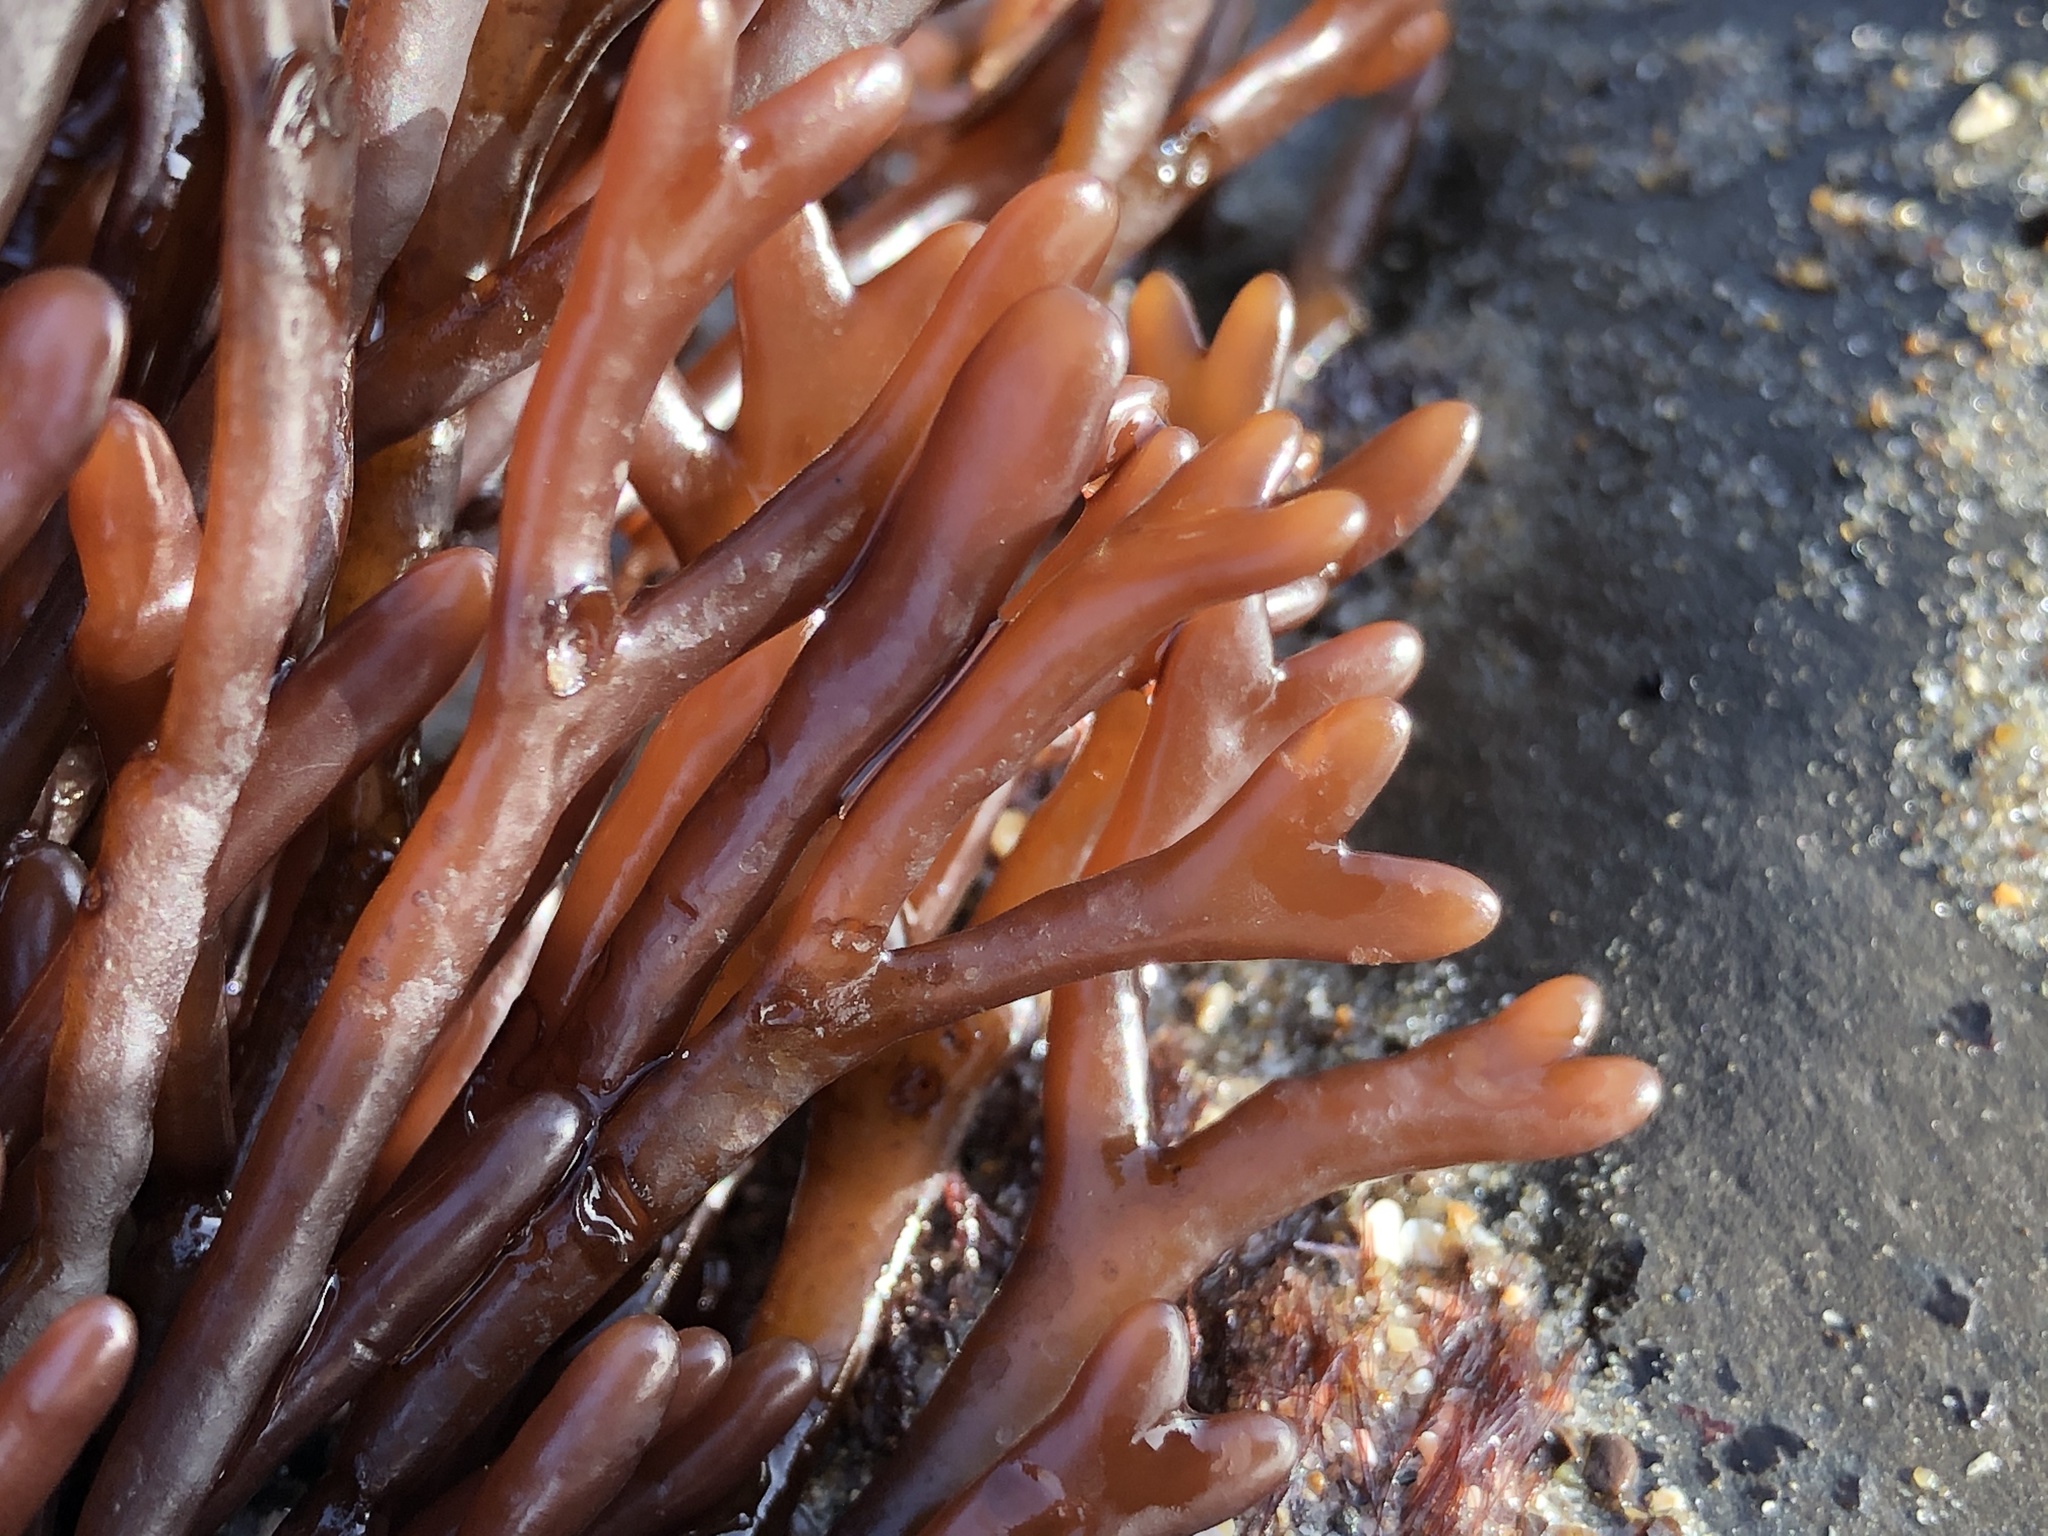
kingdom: Plantae
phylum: Rhodophyta
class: Florideophyceae
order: Gigartinales
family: Phyllophoraceae
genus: Ahnfeltiopsis
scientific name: Ahnfeltiopsis linearis
